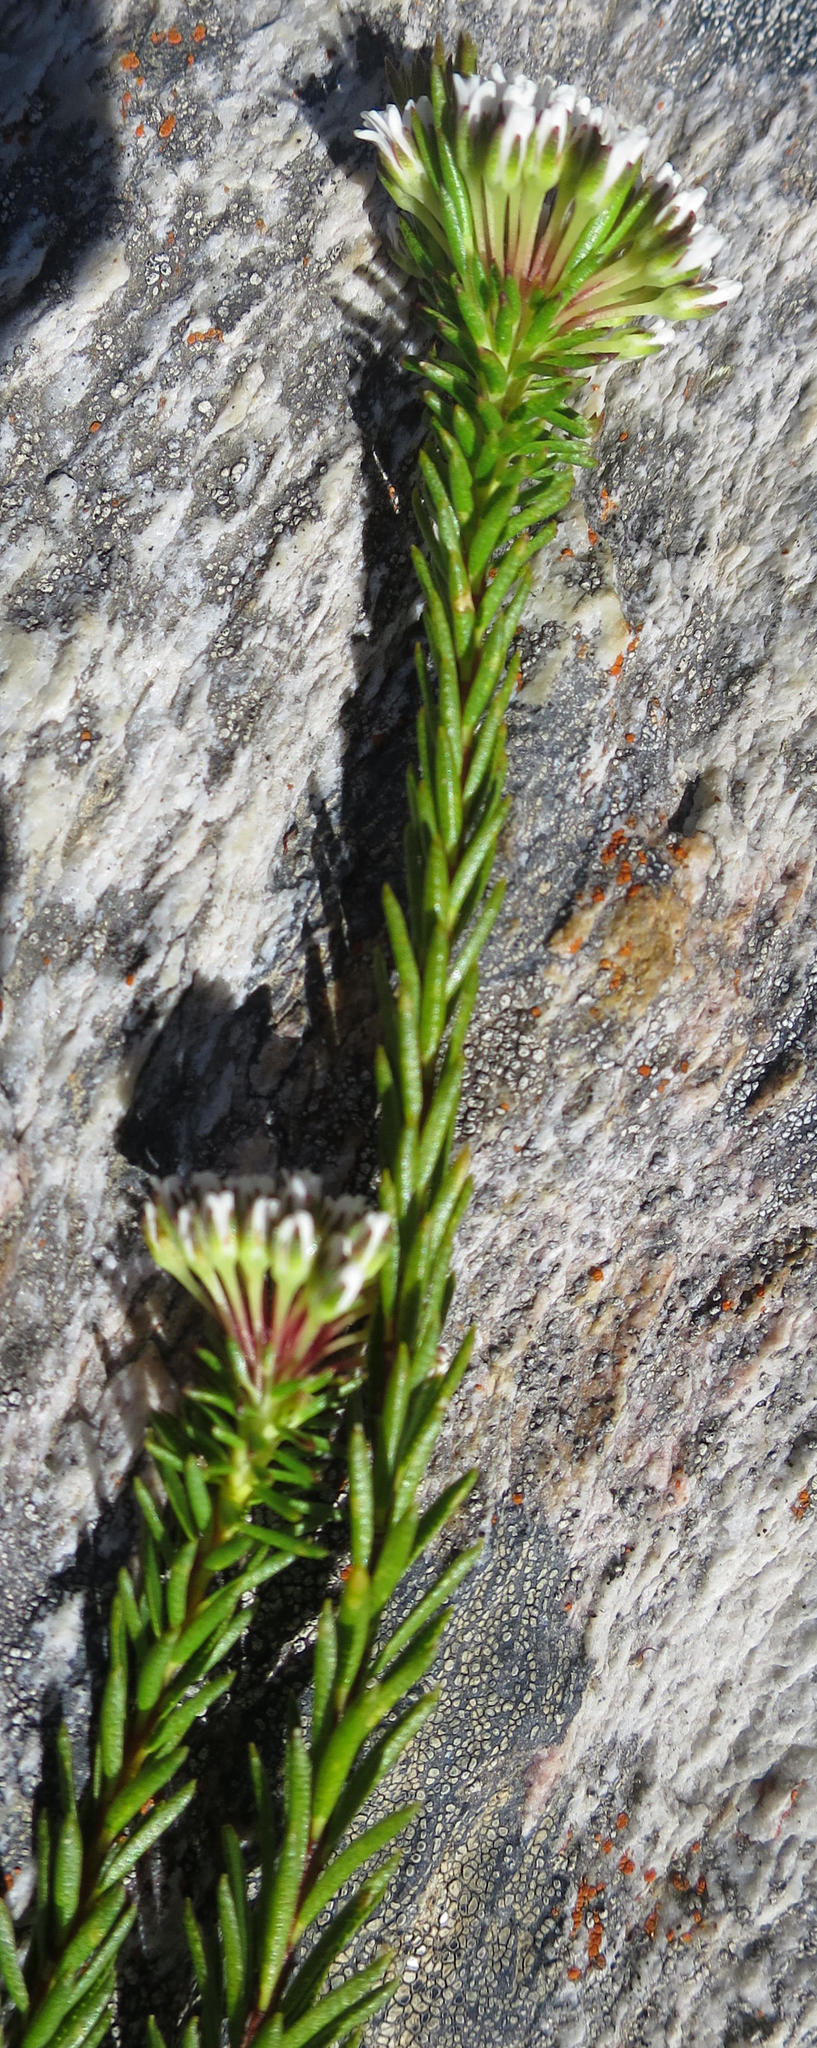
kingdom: Plantae
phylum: Tracheophyta
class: Magnoliopsida
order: Sapindales
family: Rutaceae
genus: Agathosma
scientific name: Agathosma bifida
